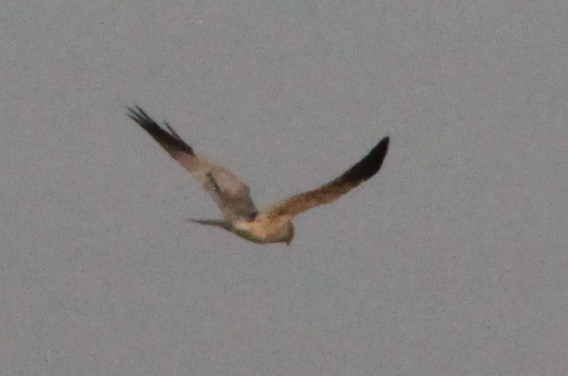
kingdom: Animalia
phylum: Chordata
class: Aves
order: Accipitriformes
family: Accipitridae
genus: Circus
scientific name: Circus pygargus
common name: Montagu's harrier
